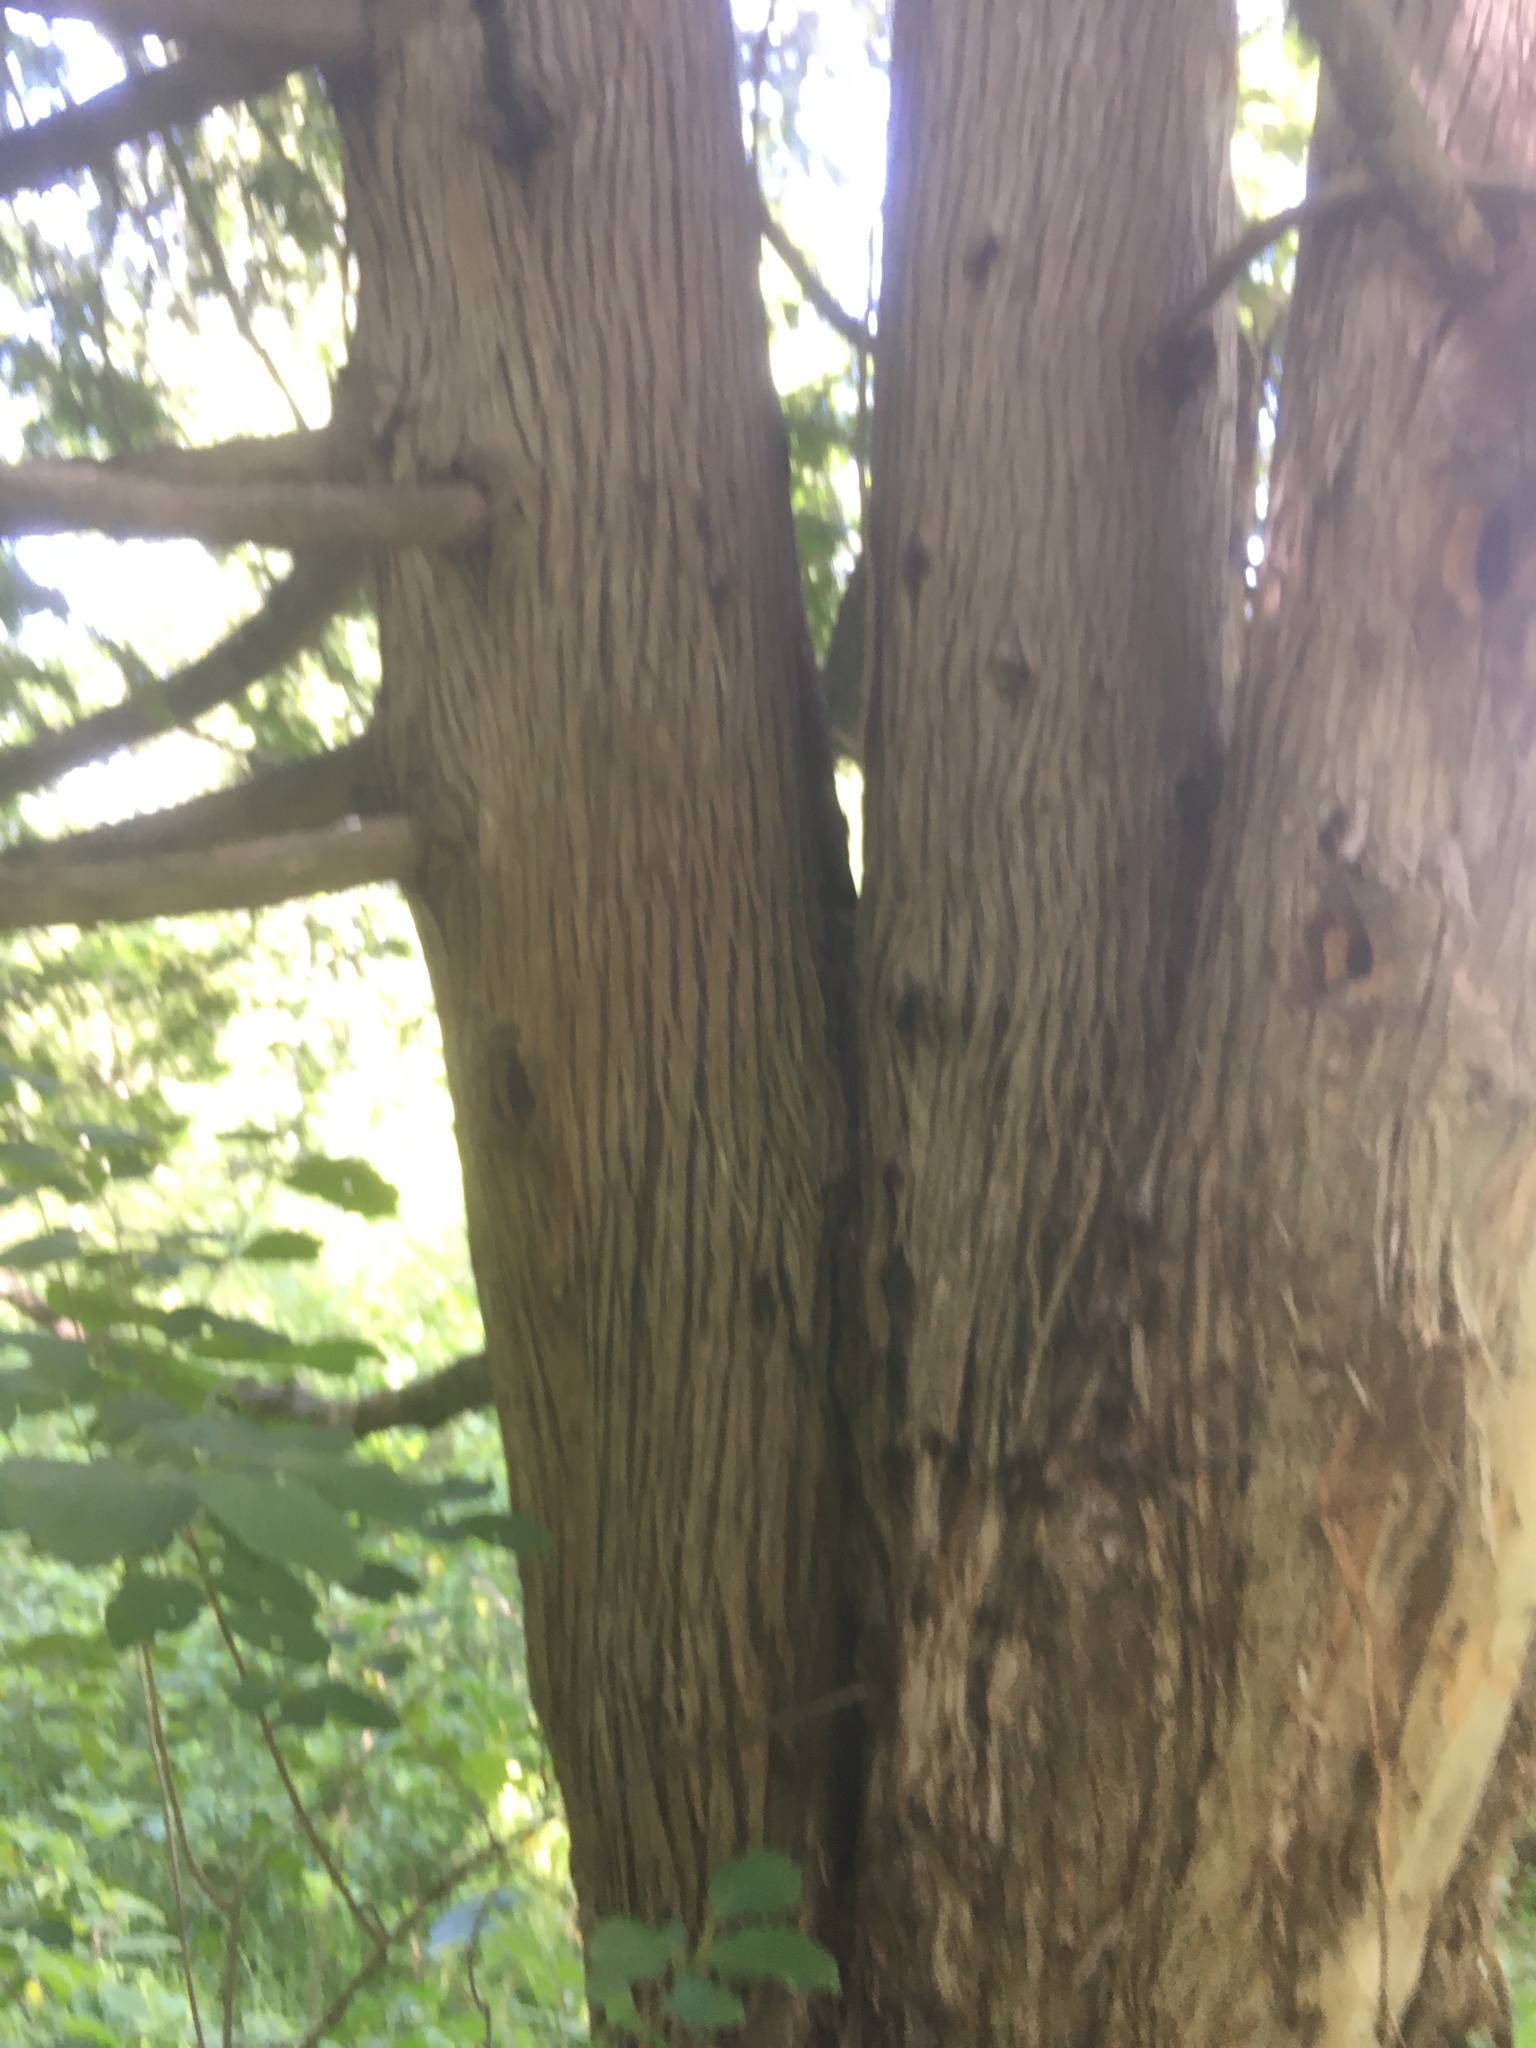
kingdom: Plantae
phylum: Tracheophyta
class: Pinopsida
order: Pinales
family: Cupressaceae
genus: Thuja
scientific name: Thuja occidentalis
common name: Northern white-cedar
